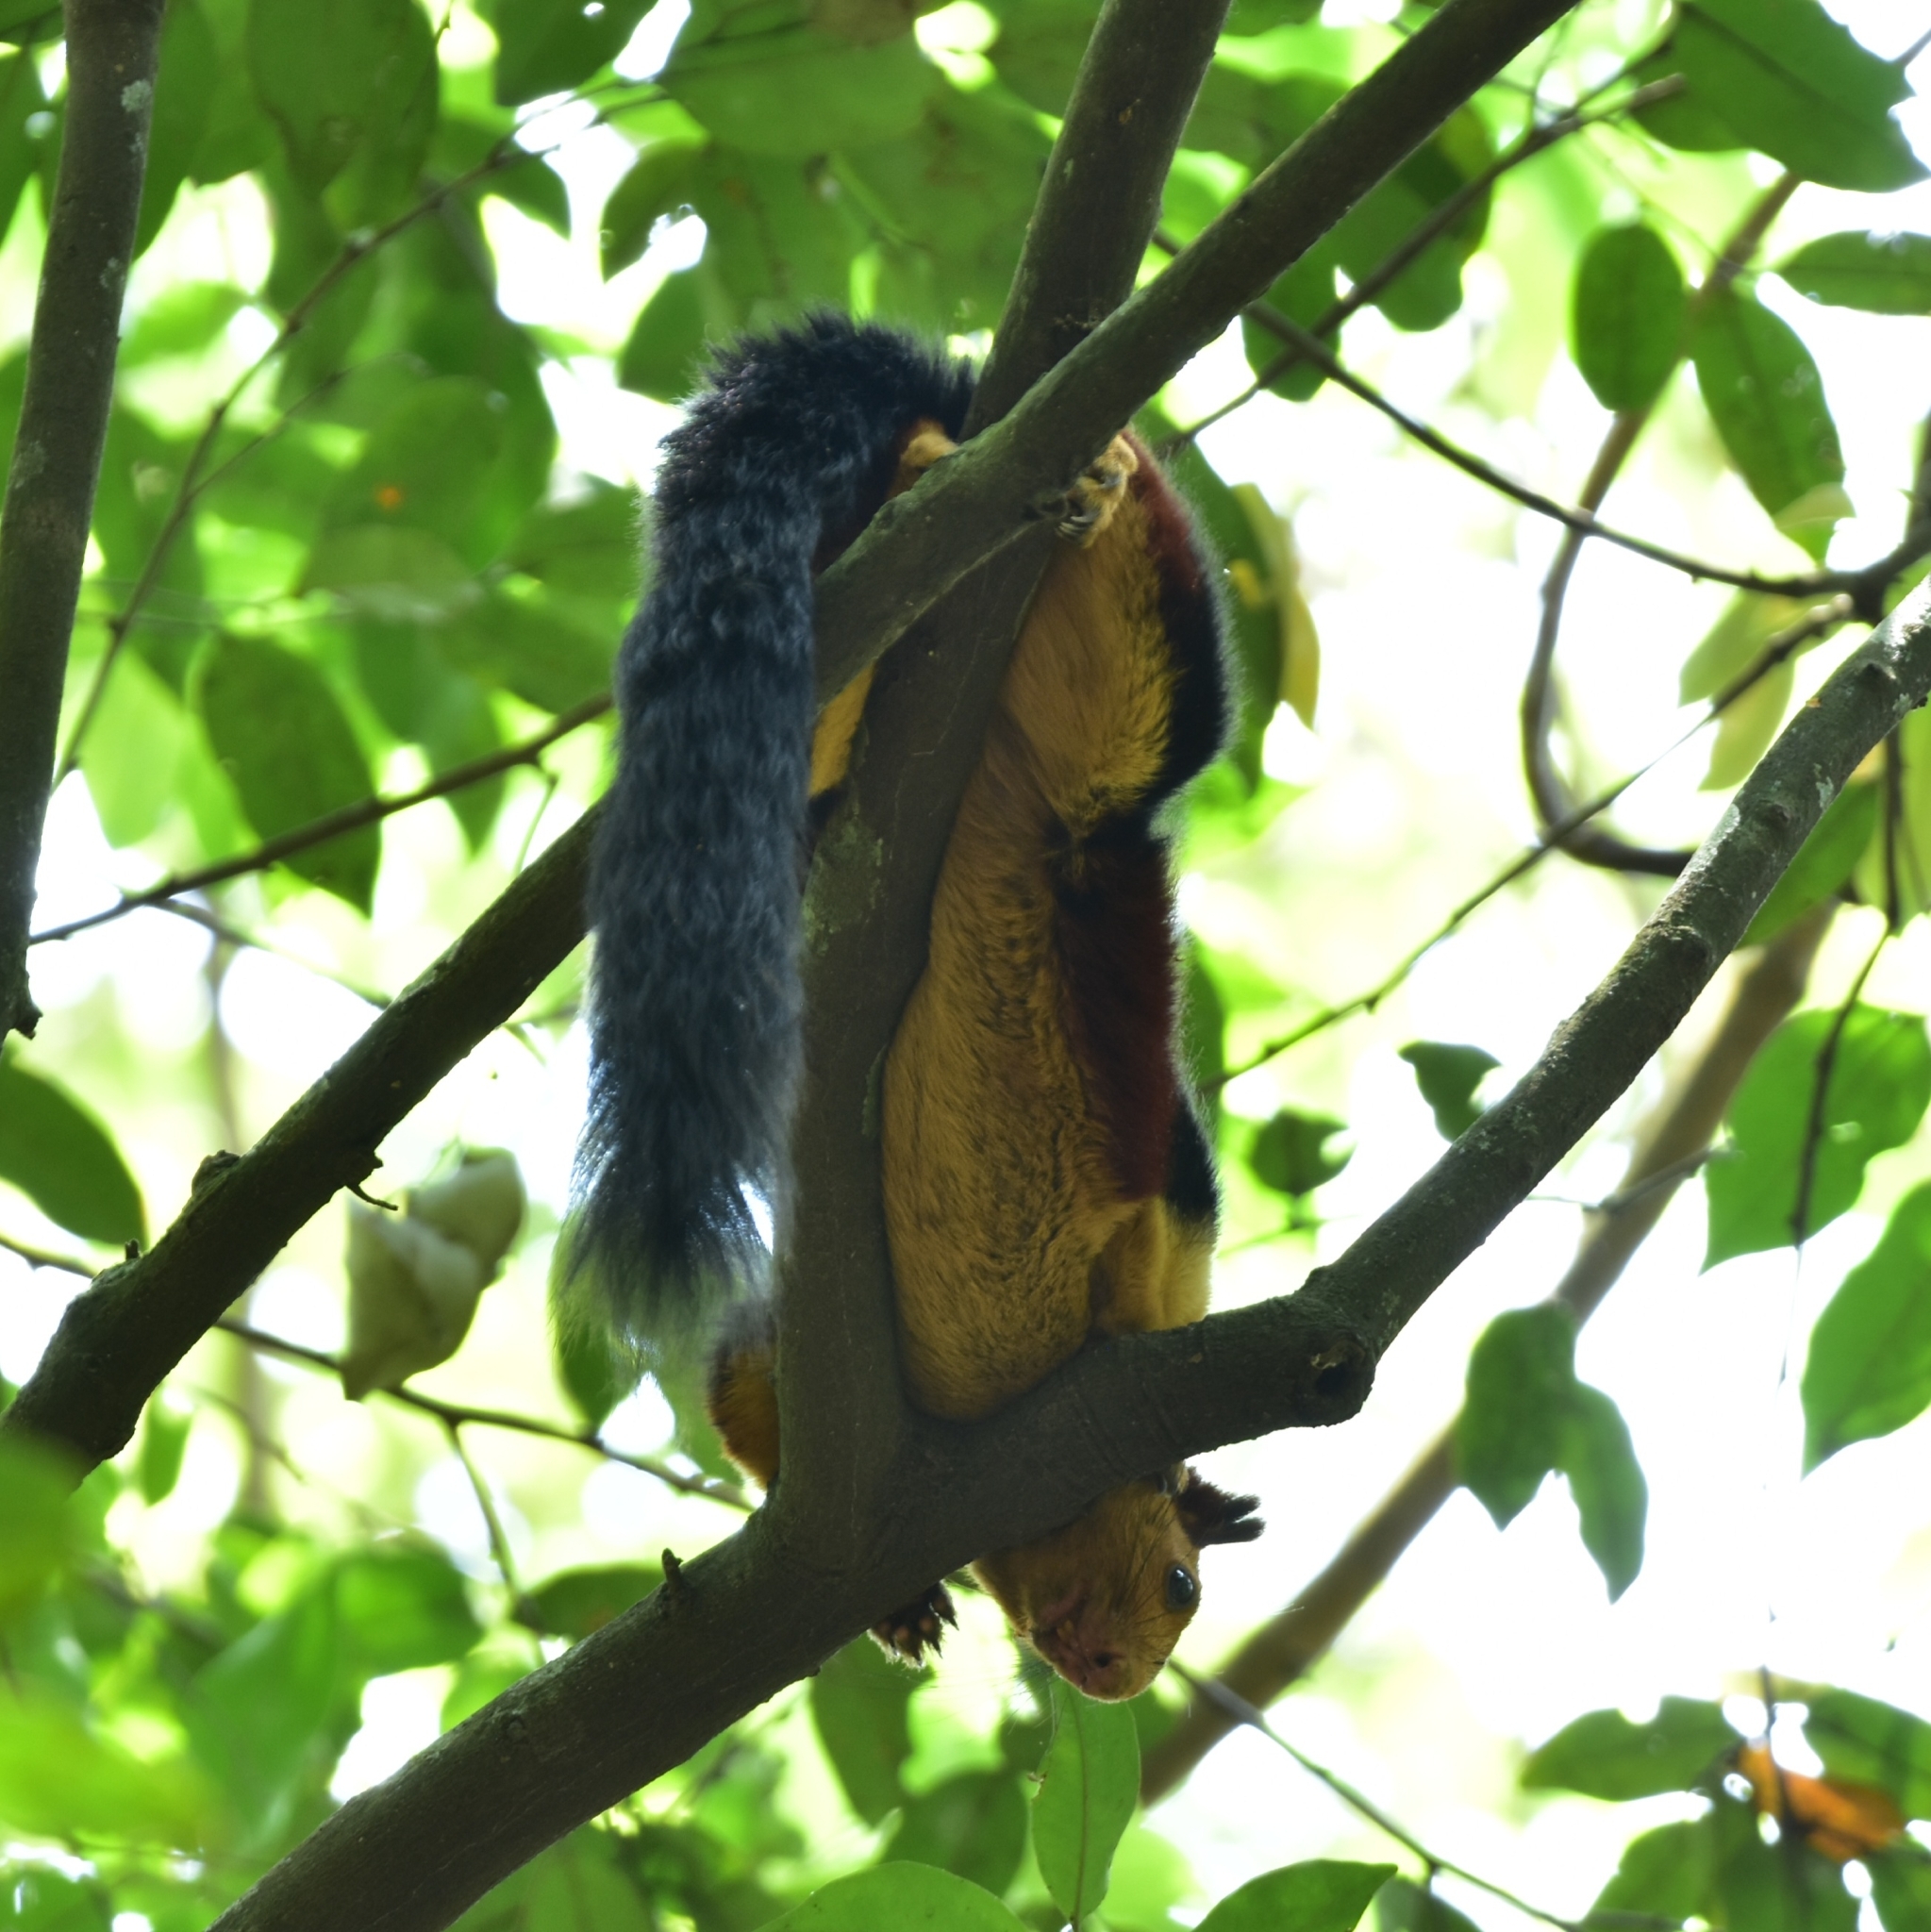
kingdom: Animalia
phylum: Chordata
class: Mammalia
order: Rodentia
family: Sciuridae
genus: Ratufa
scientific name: Ratufa indica
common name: Indian giant squirrel
